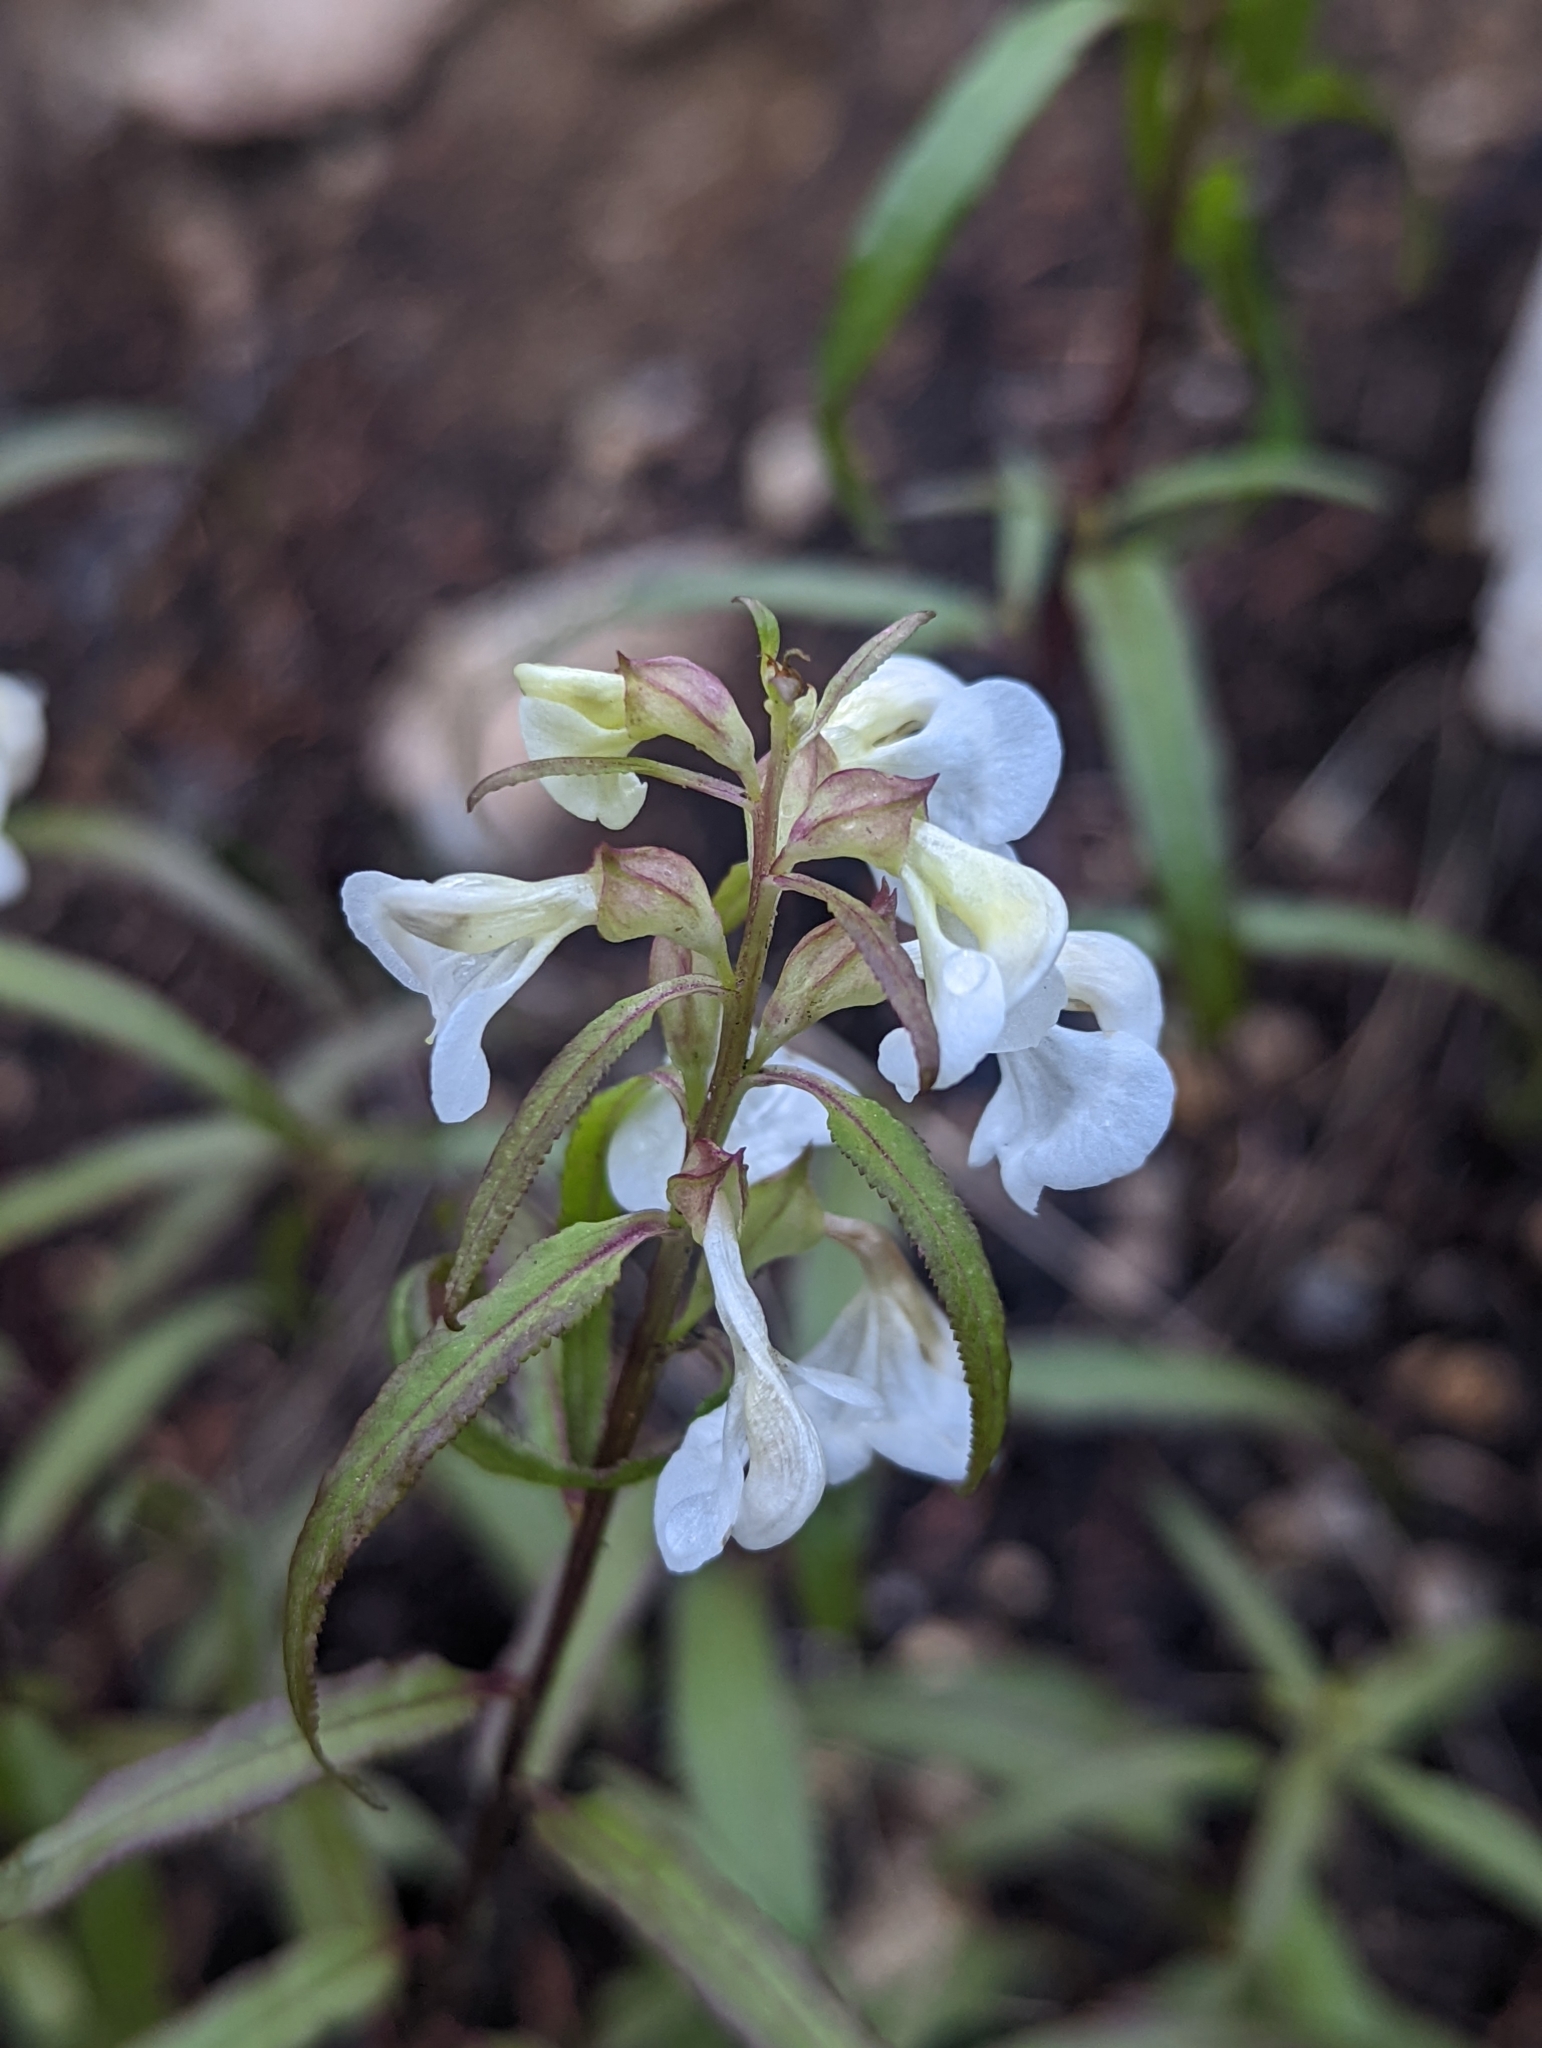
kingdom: Plantae
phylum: Tracheophyta
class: Magnoliopsida
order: Lamiales
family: Orobanchaceae
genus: Pedicularis
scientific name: Pedicularis racemosa
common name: Leafy lousewort
